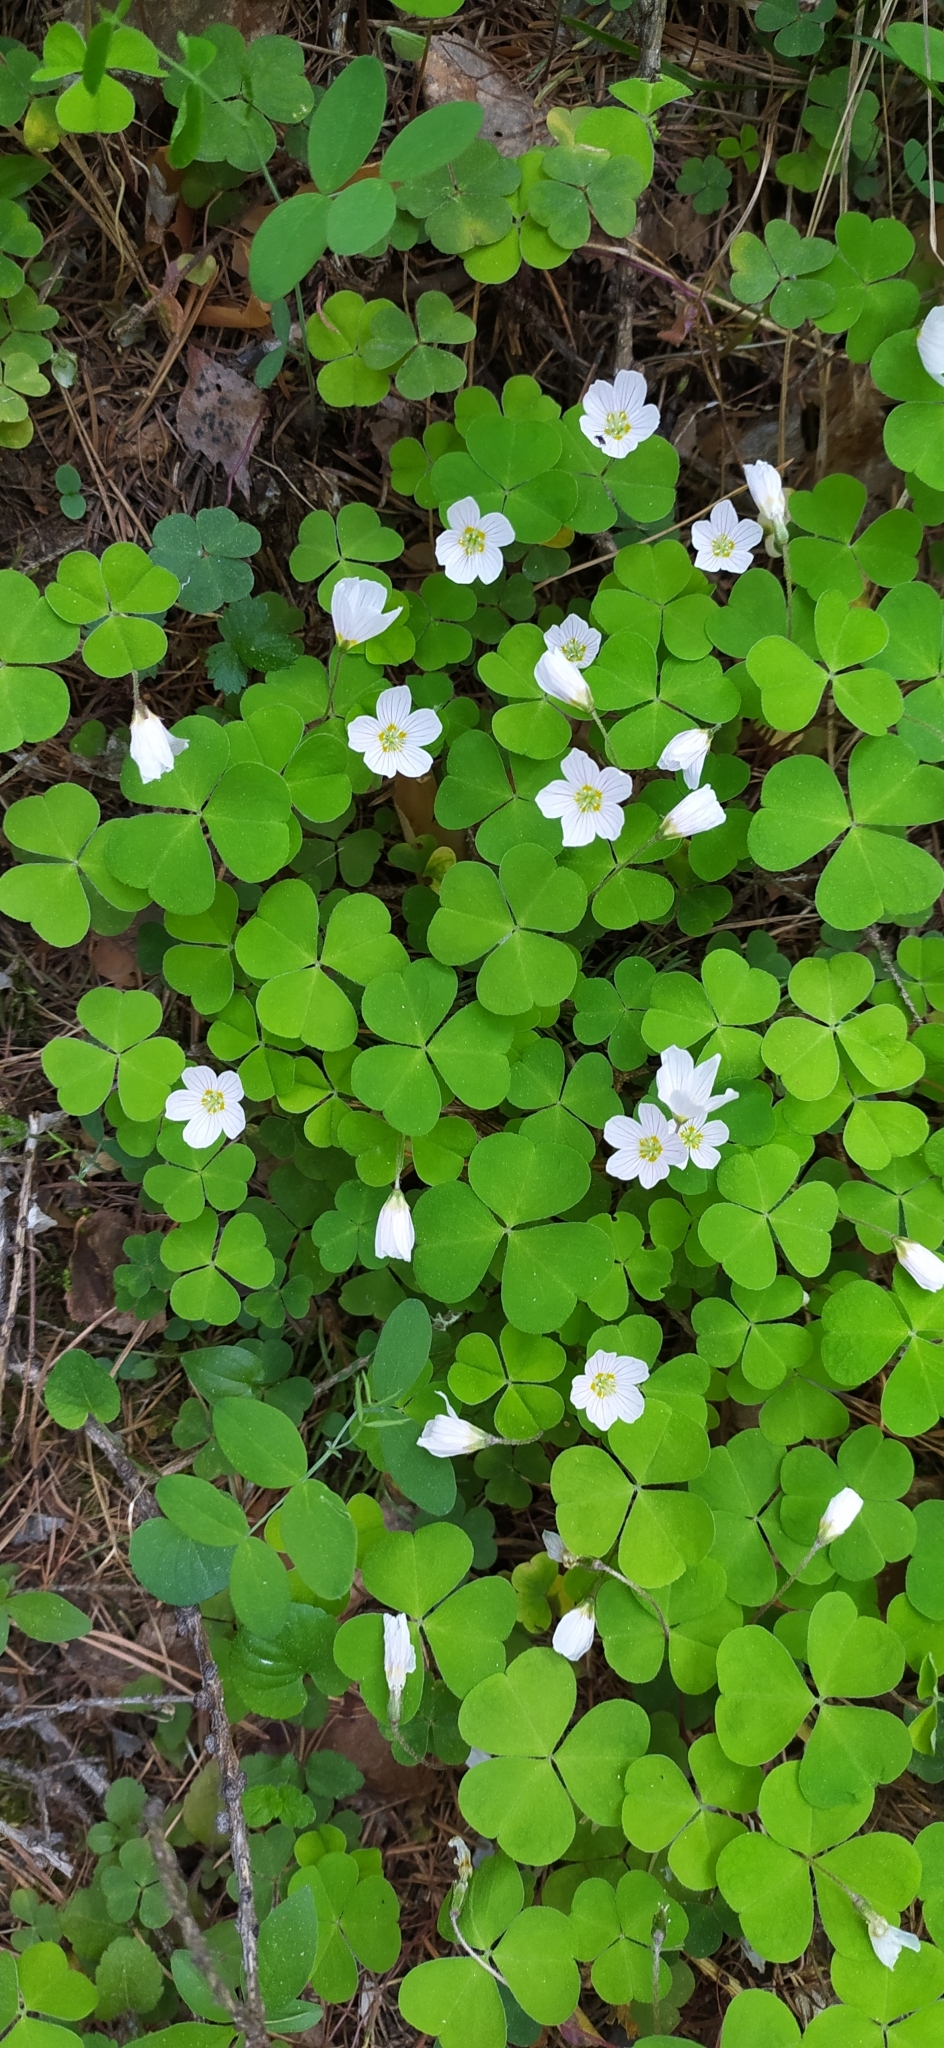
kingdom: Plantae
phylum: Tracheophyta
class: Magnoliopsida
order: Oxalidales
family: Oxalidaceae
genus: Oxalis
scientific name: Oxalis acetosella
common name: Wood-sorrel
